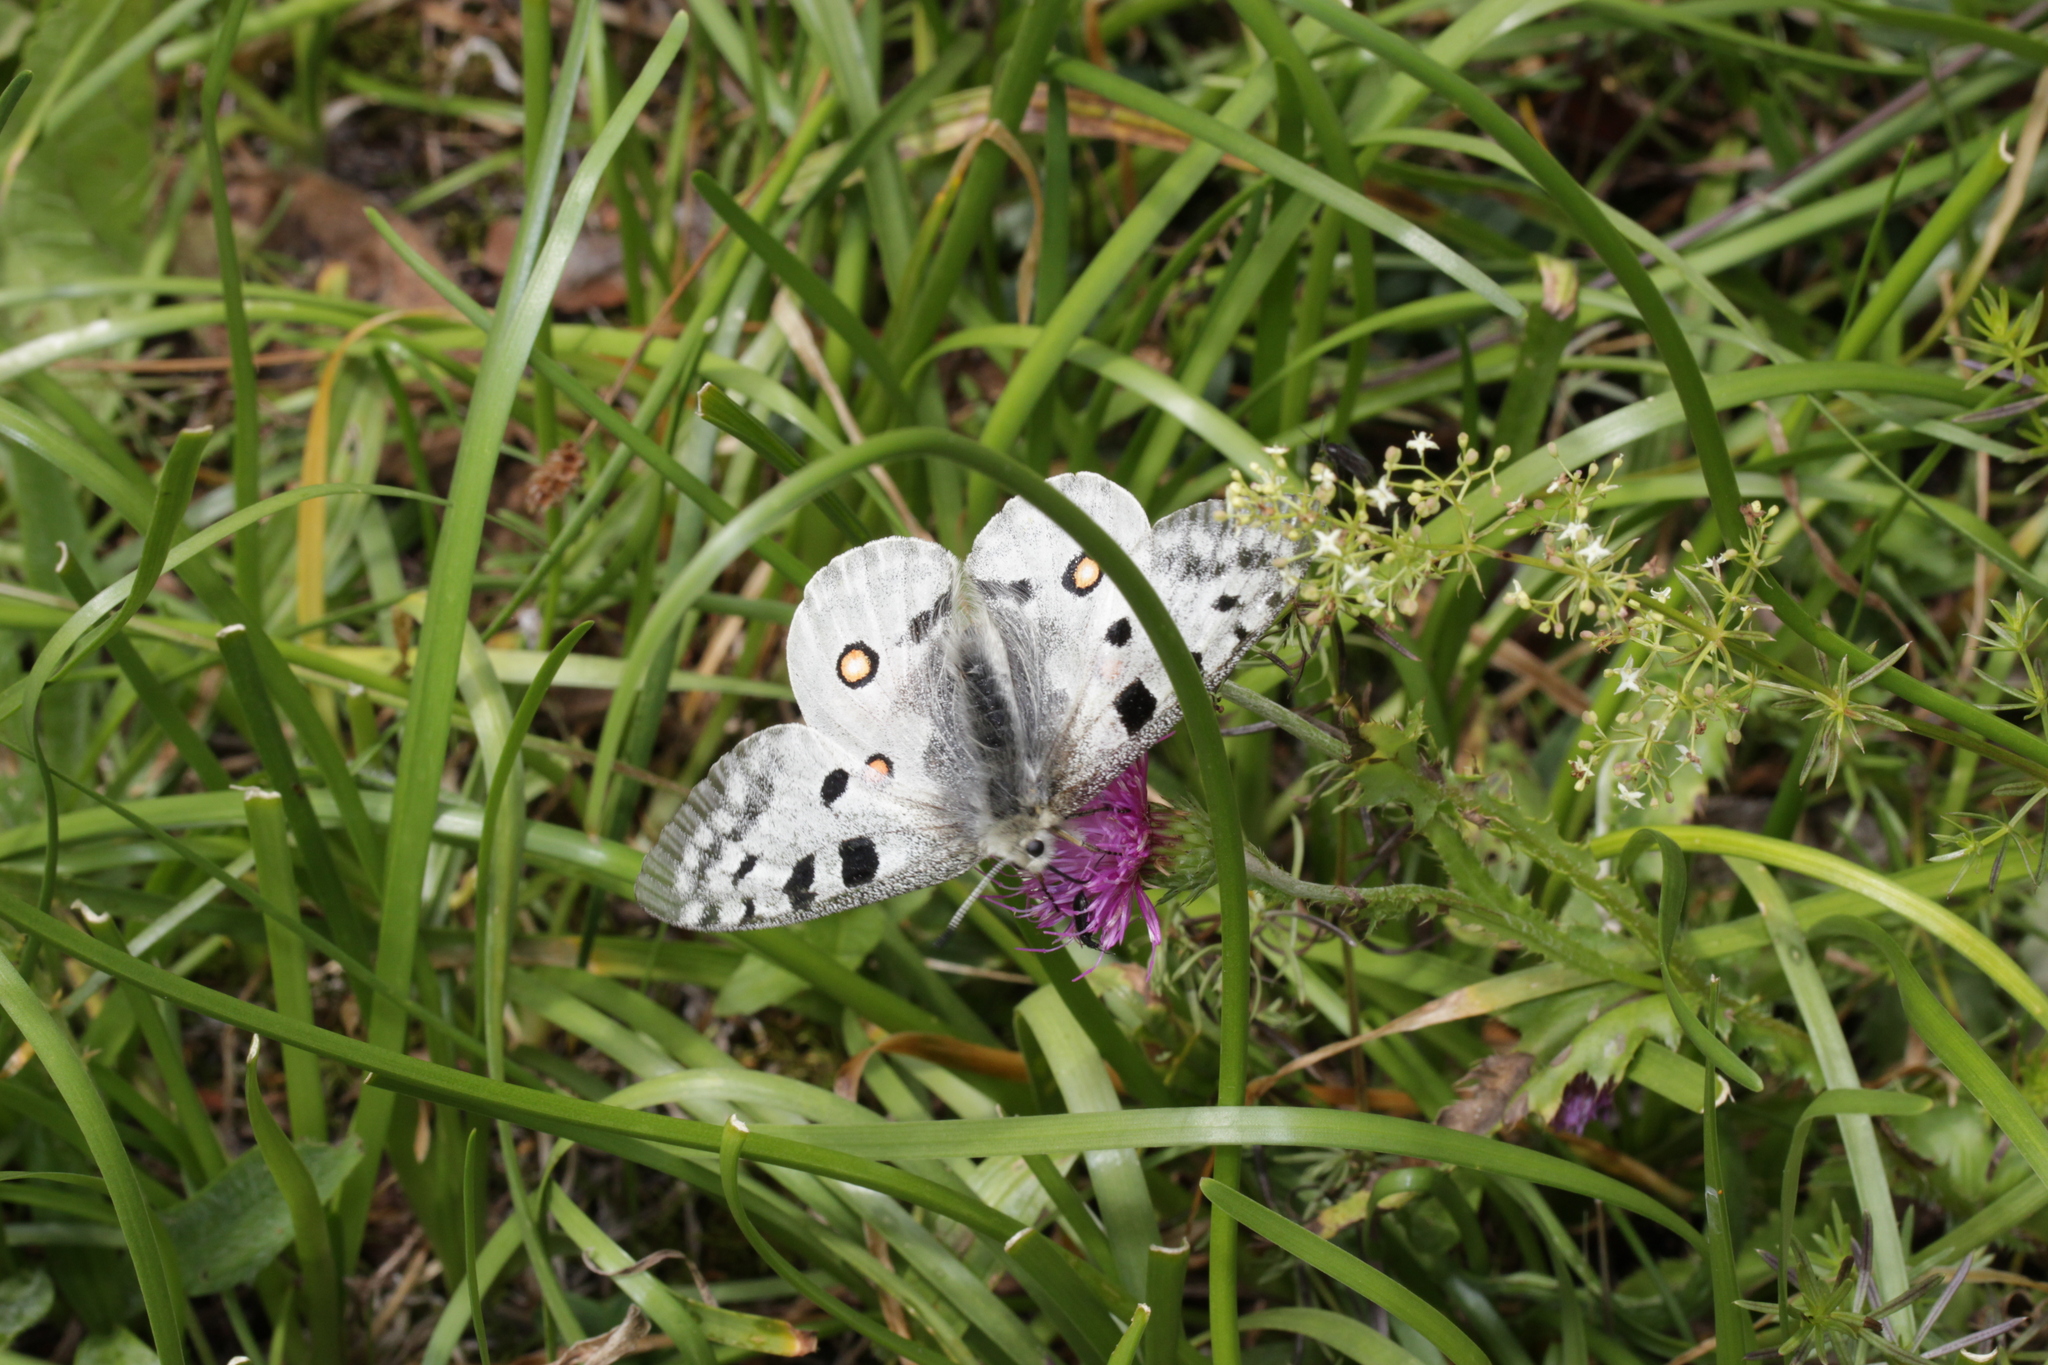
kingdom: Animalia
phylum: Arthropoda
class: Insecta
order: Lepidoptera
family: Papilionidae
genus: Parnassius
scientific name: Parnassius apollo
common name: Apollo
